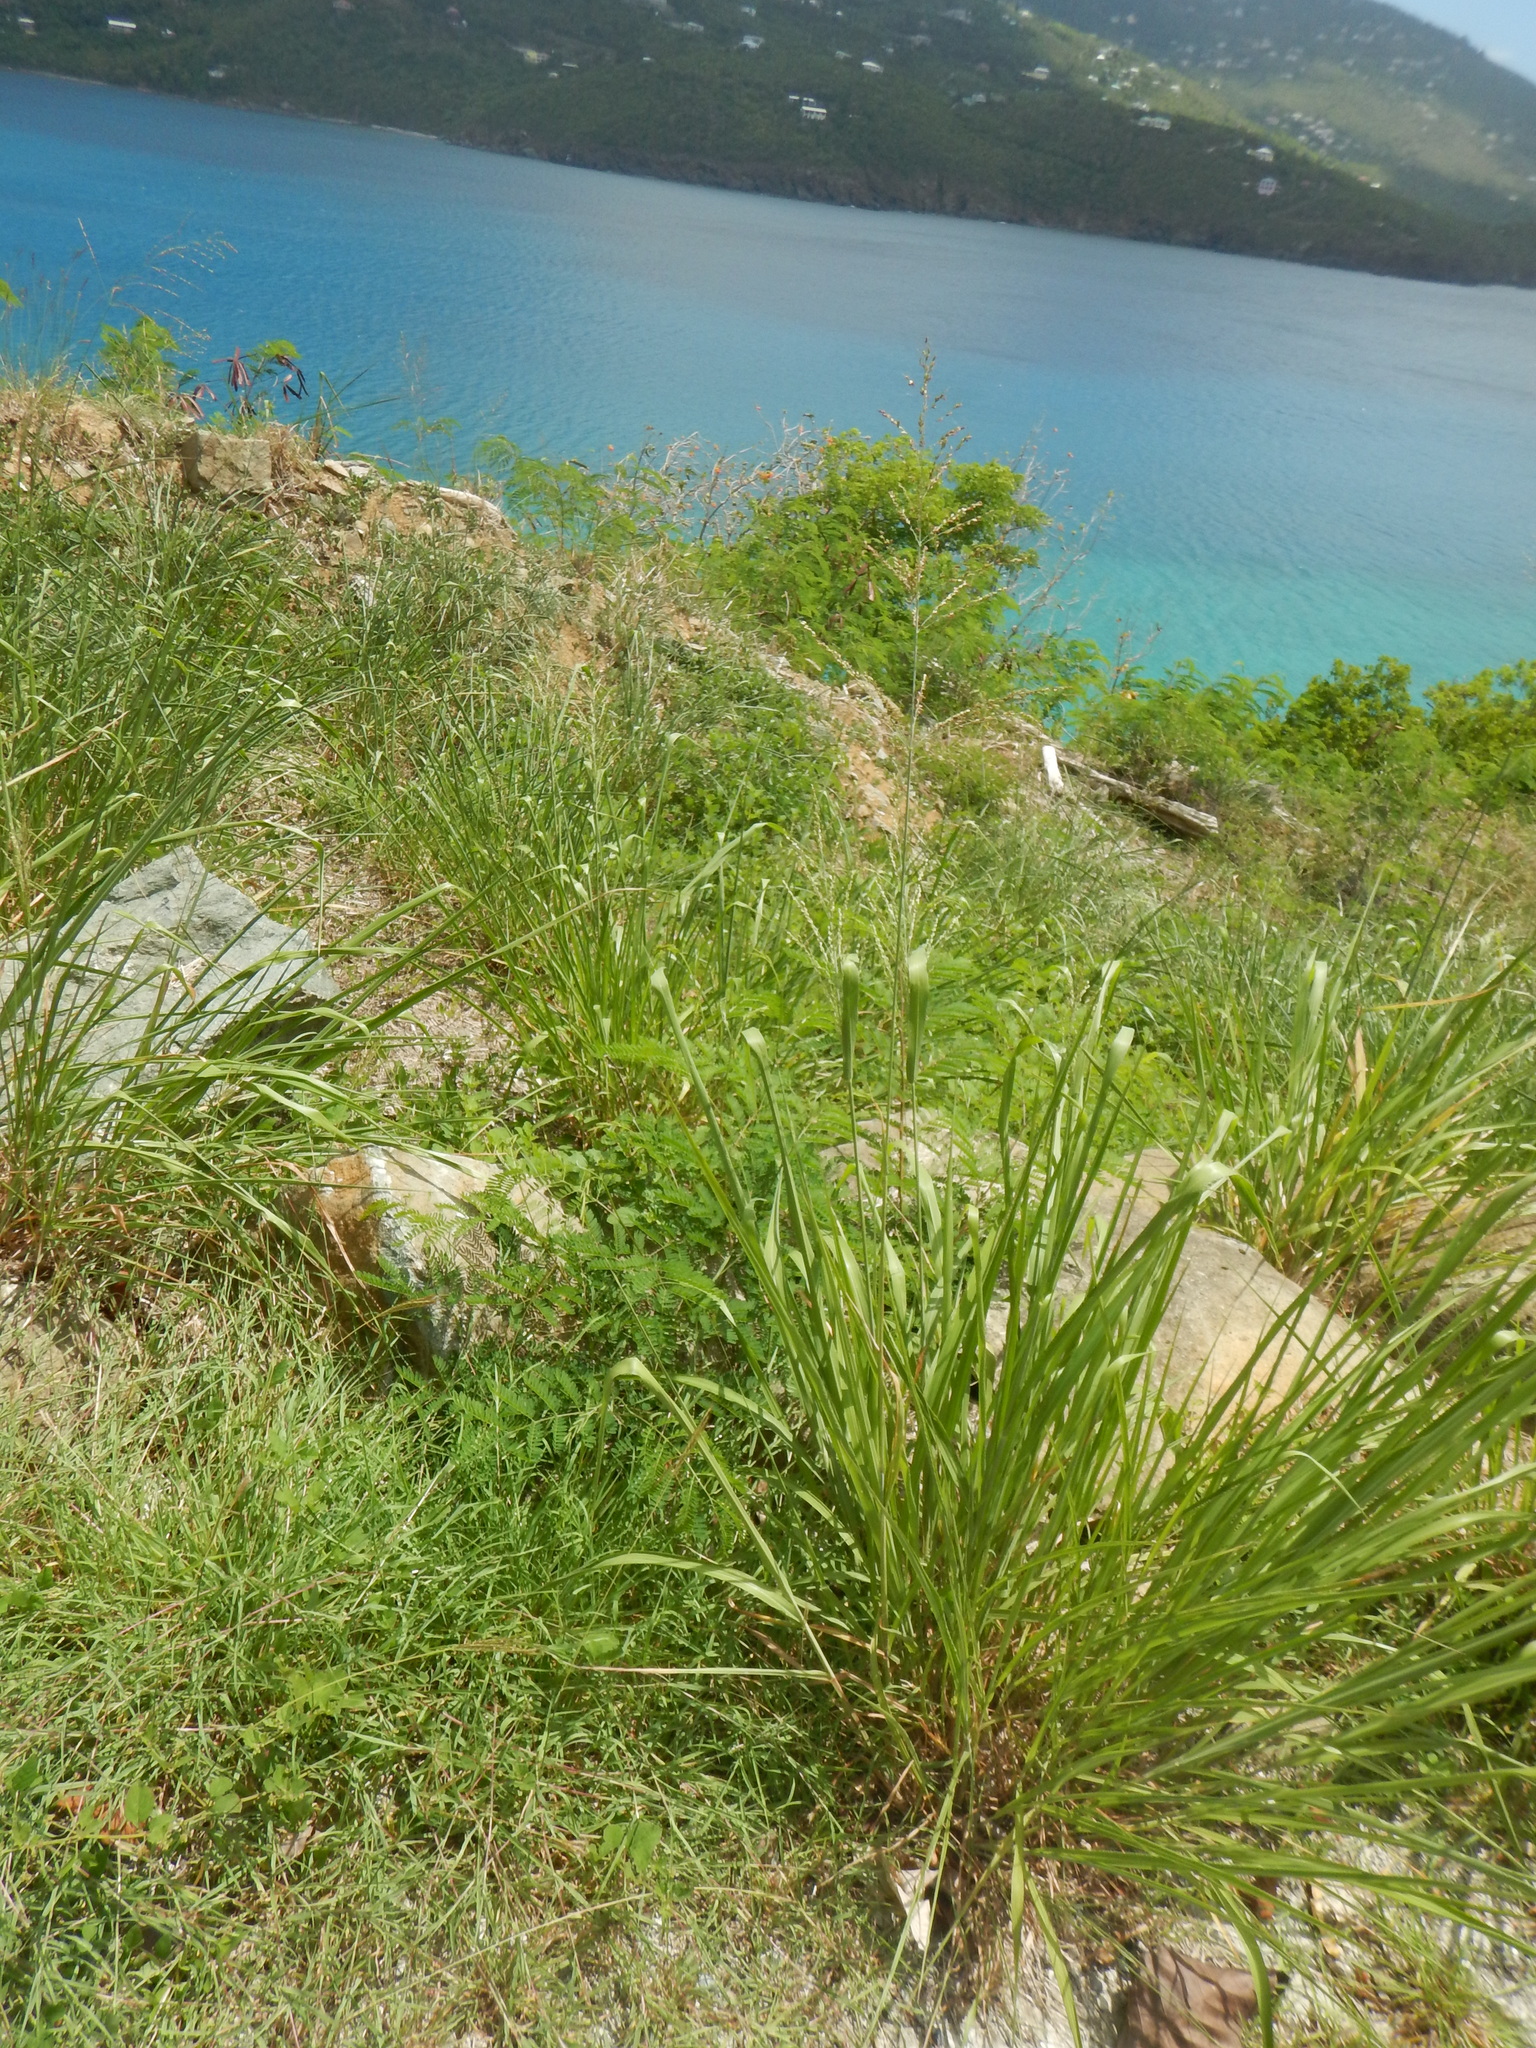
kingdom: Plantae
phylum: Tracheophyta
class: Liliopsida
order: Poales
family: Poaceae
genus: Megathyrsus
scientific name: Megathyrsus maximus
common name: Guineagrass
